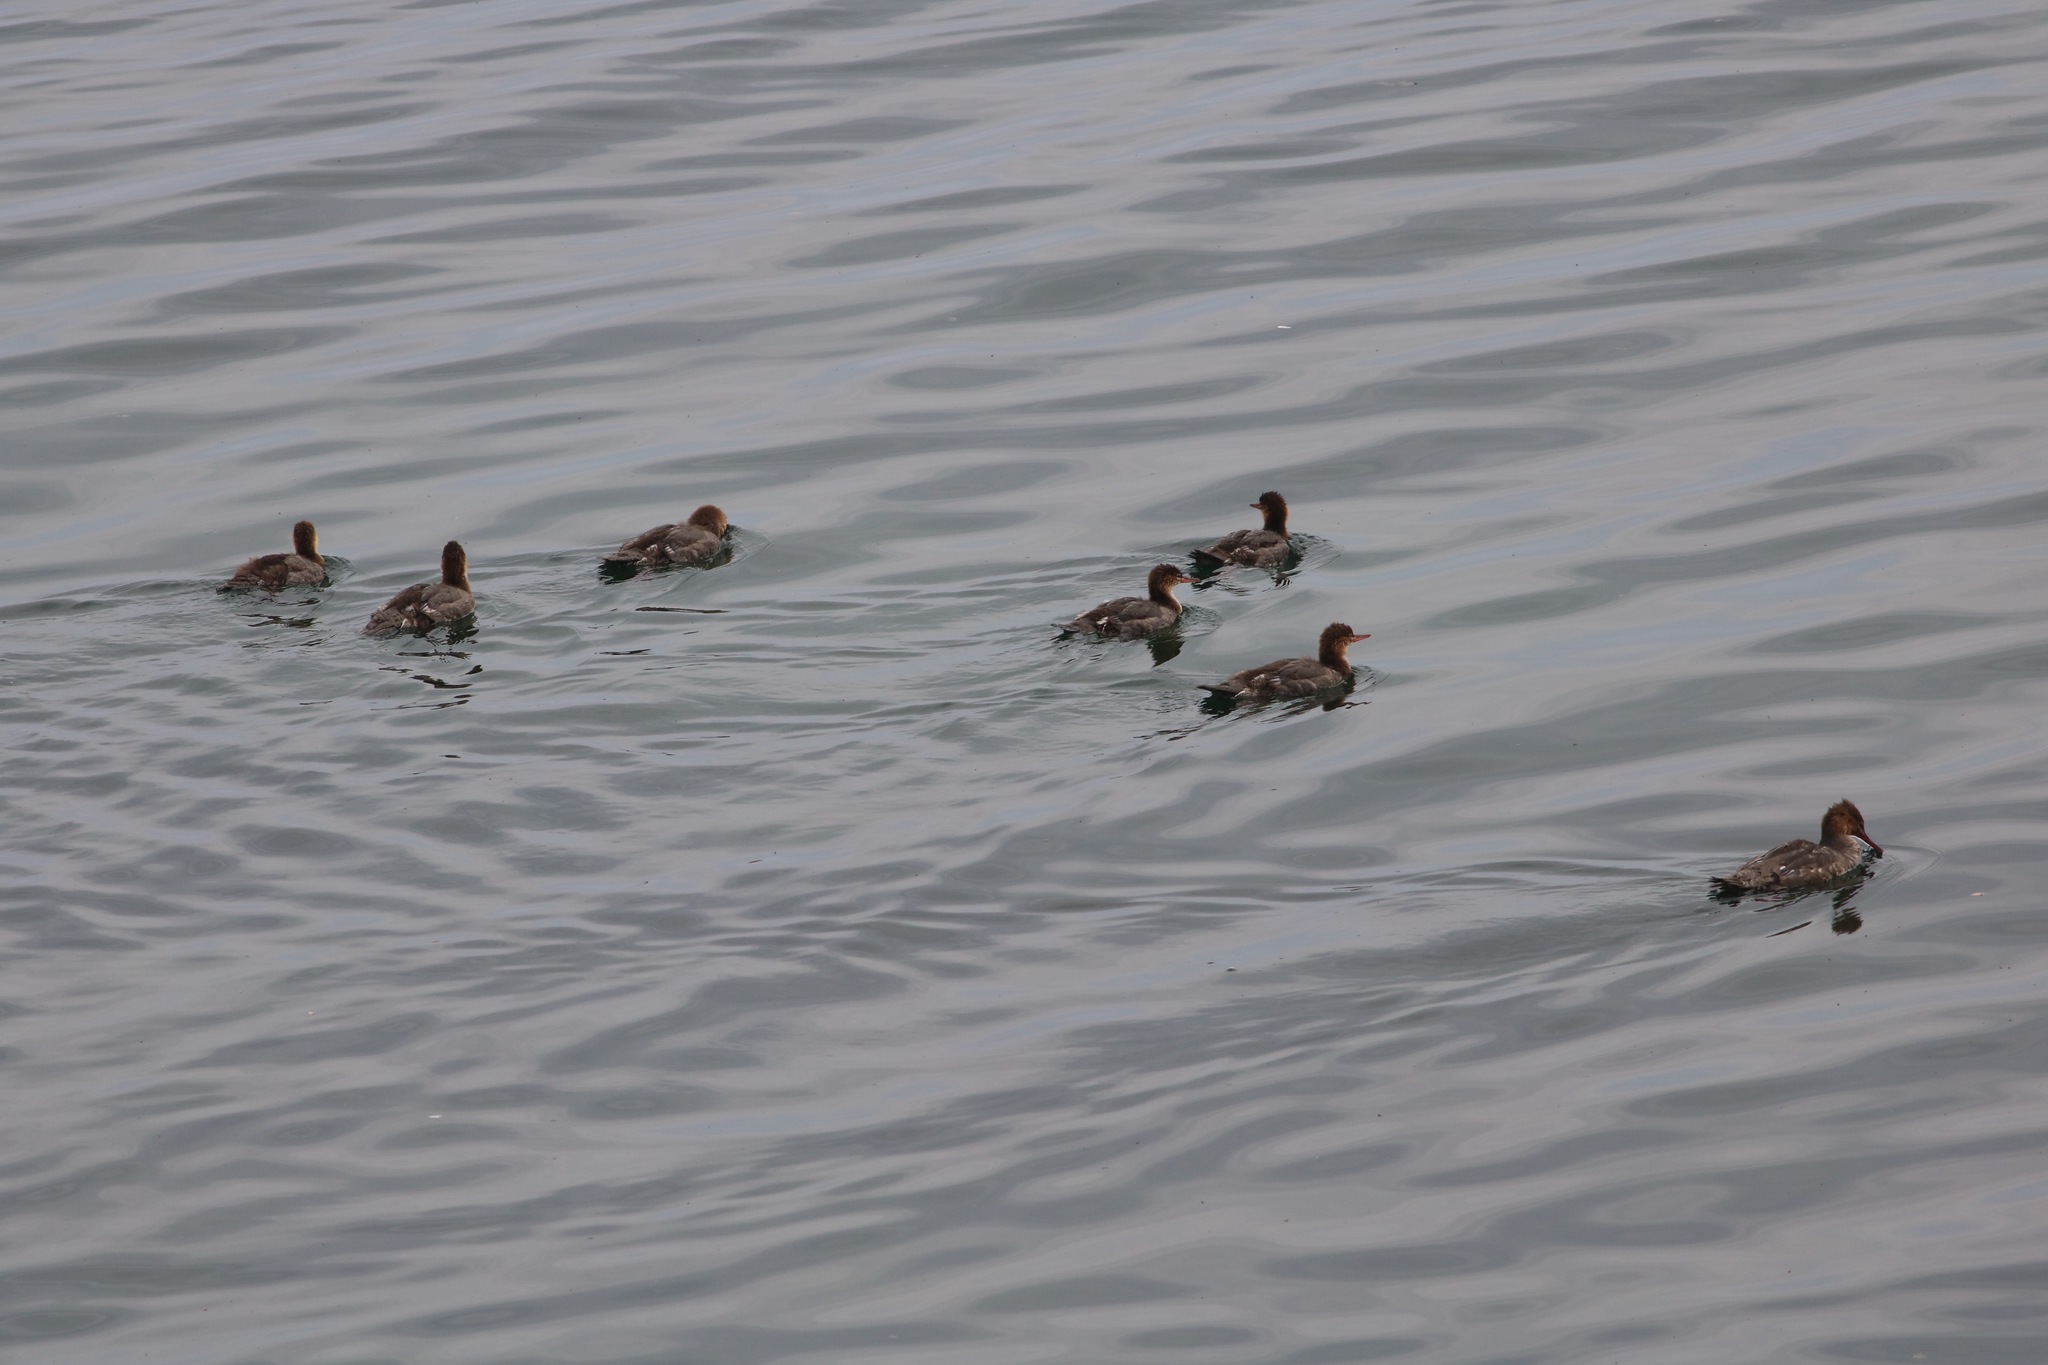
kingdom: Animalia
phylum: Chordata
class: Aves
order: Anseriformes
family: Anatidae
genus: Mergus
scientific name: Mergus serrator
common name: Red-breasted merganser
